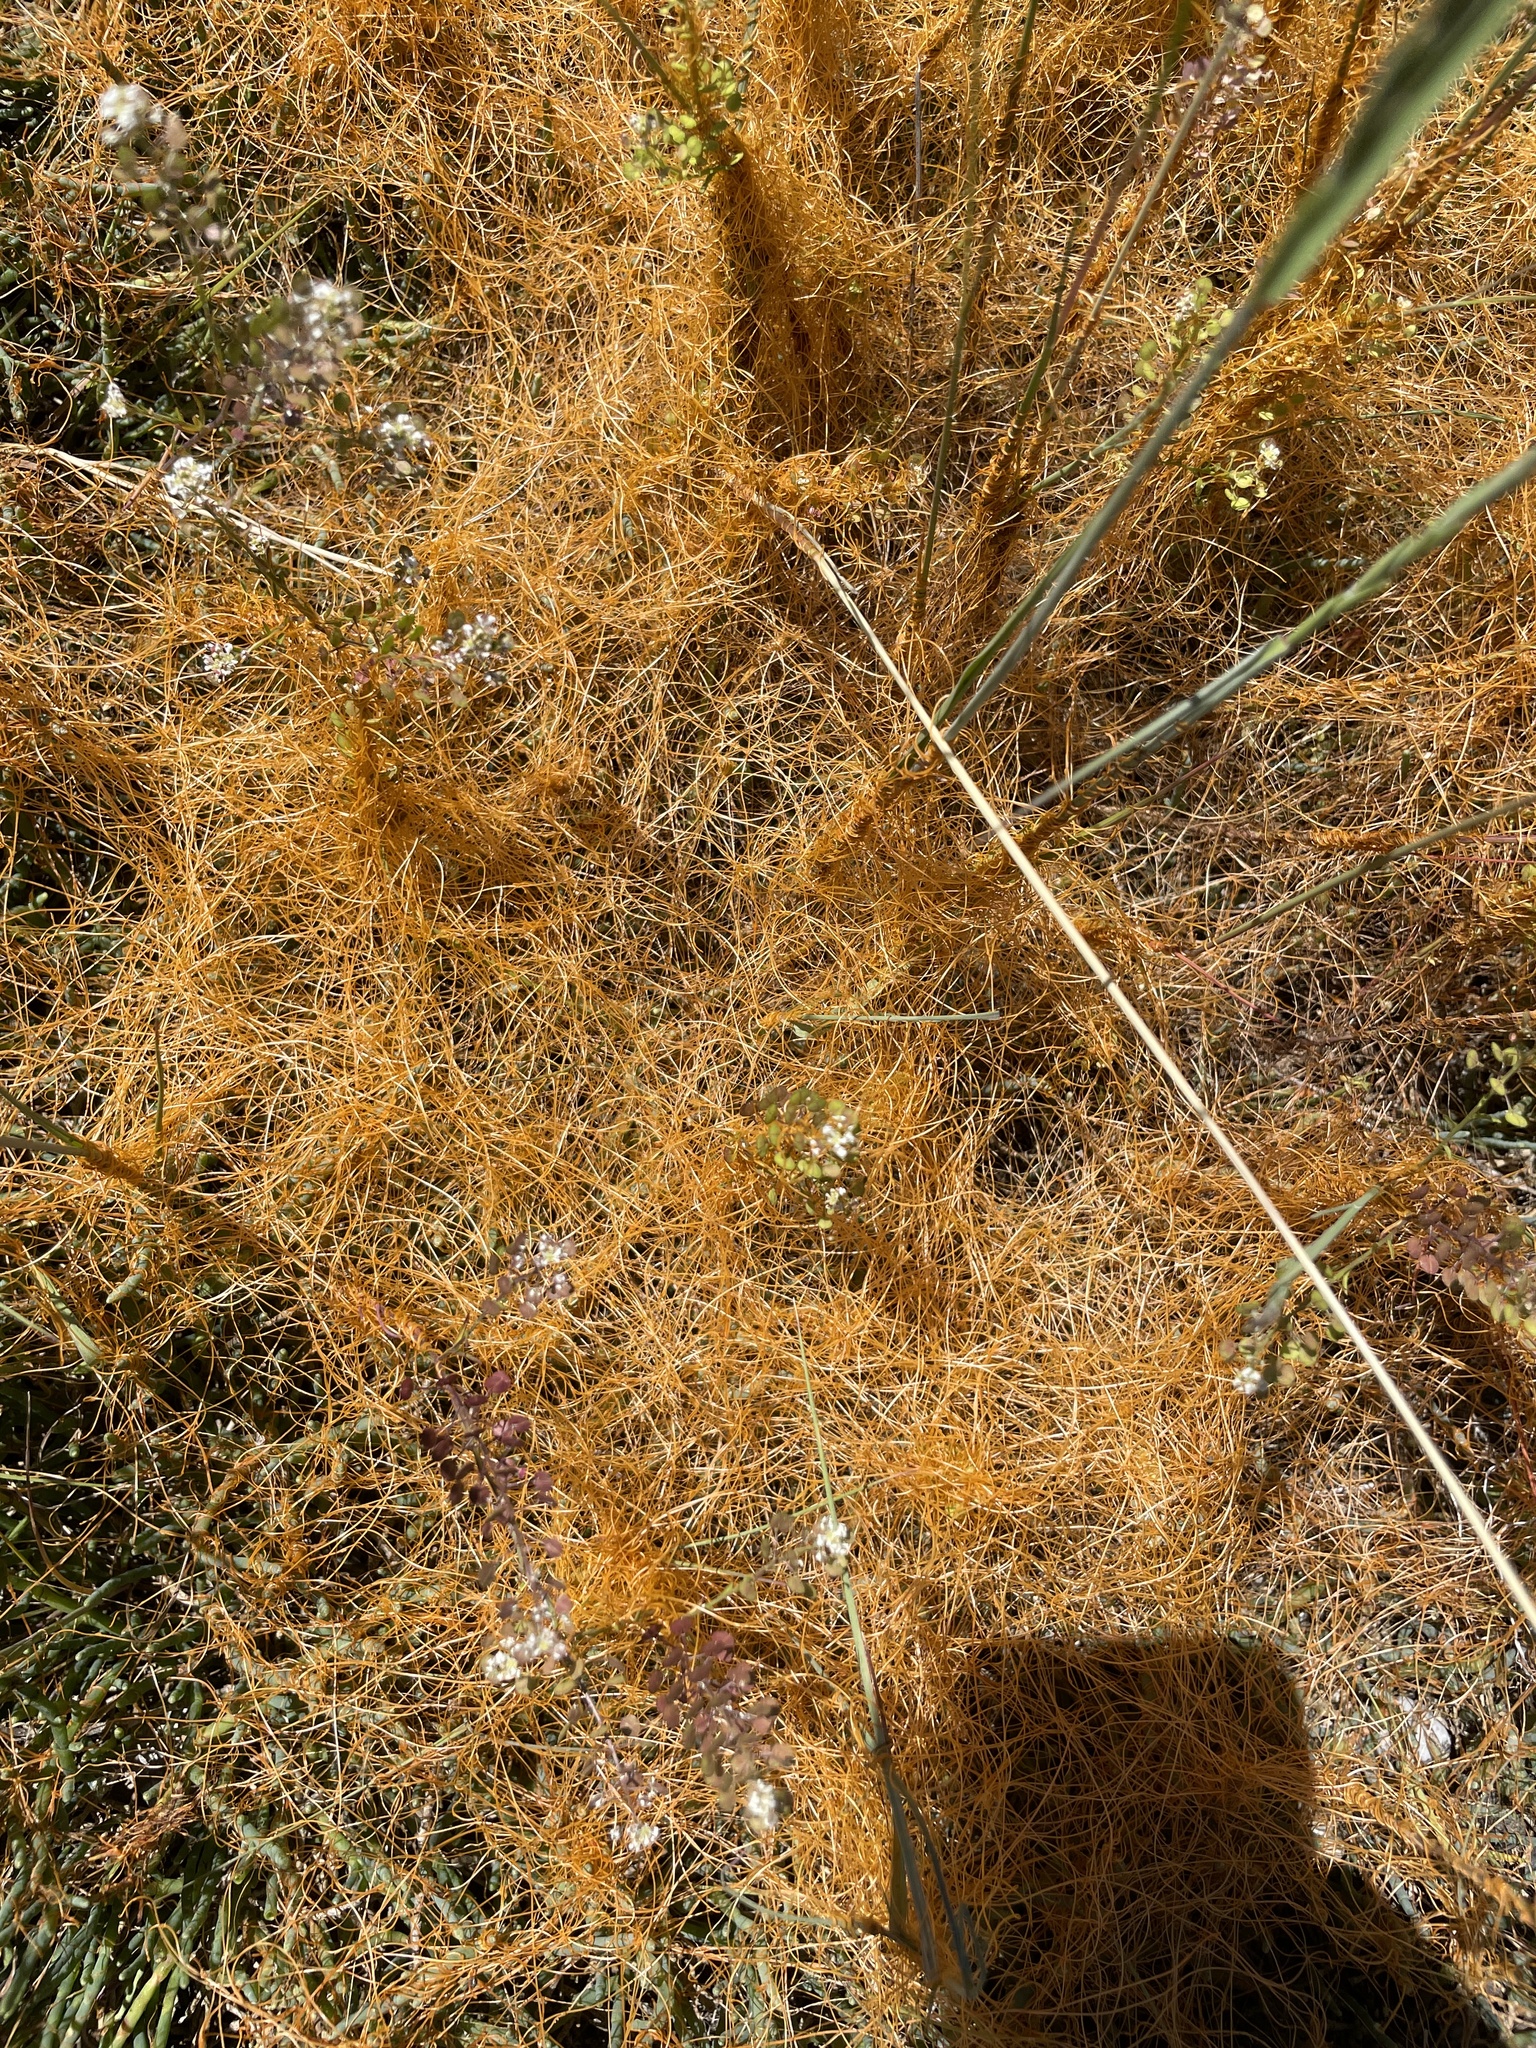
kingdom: Plantae
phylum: Tracheophyta
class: Magnoliopsida
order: Solanales
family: Convolvulaceae
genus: Cuscuta
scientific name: Cuscuta pacifica
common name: Large saltmarsh dodder
